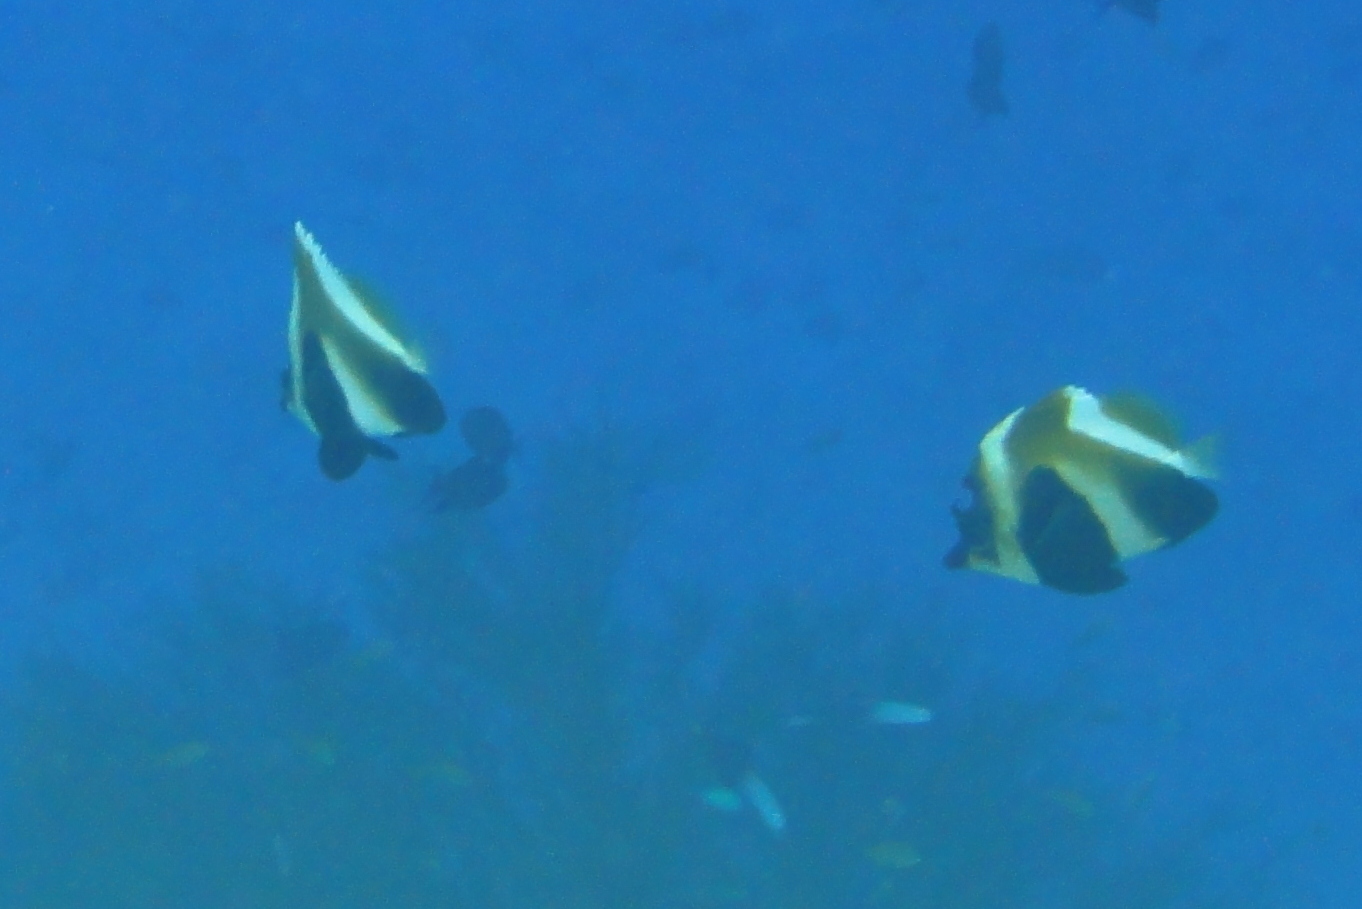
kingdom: Animalia
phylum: Chordata
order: Perciformes
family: Chaetodontidae
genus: Heniochus
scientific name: Heniochus pleurotaenia
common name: Indian ocean bannerfish
